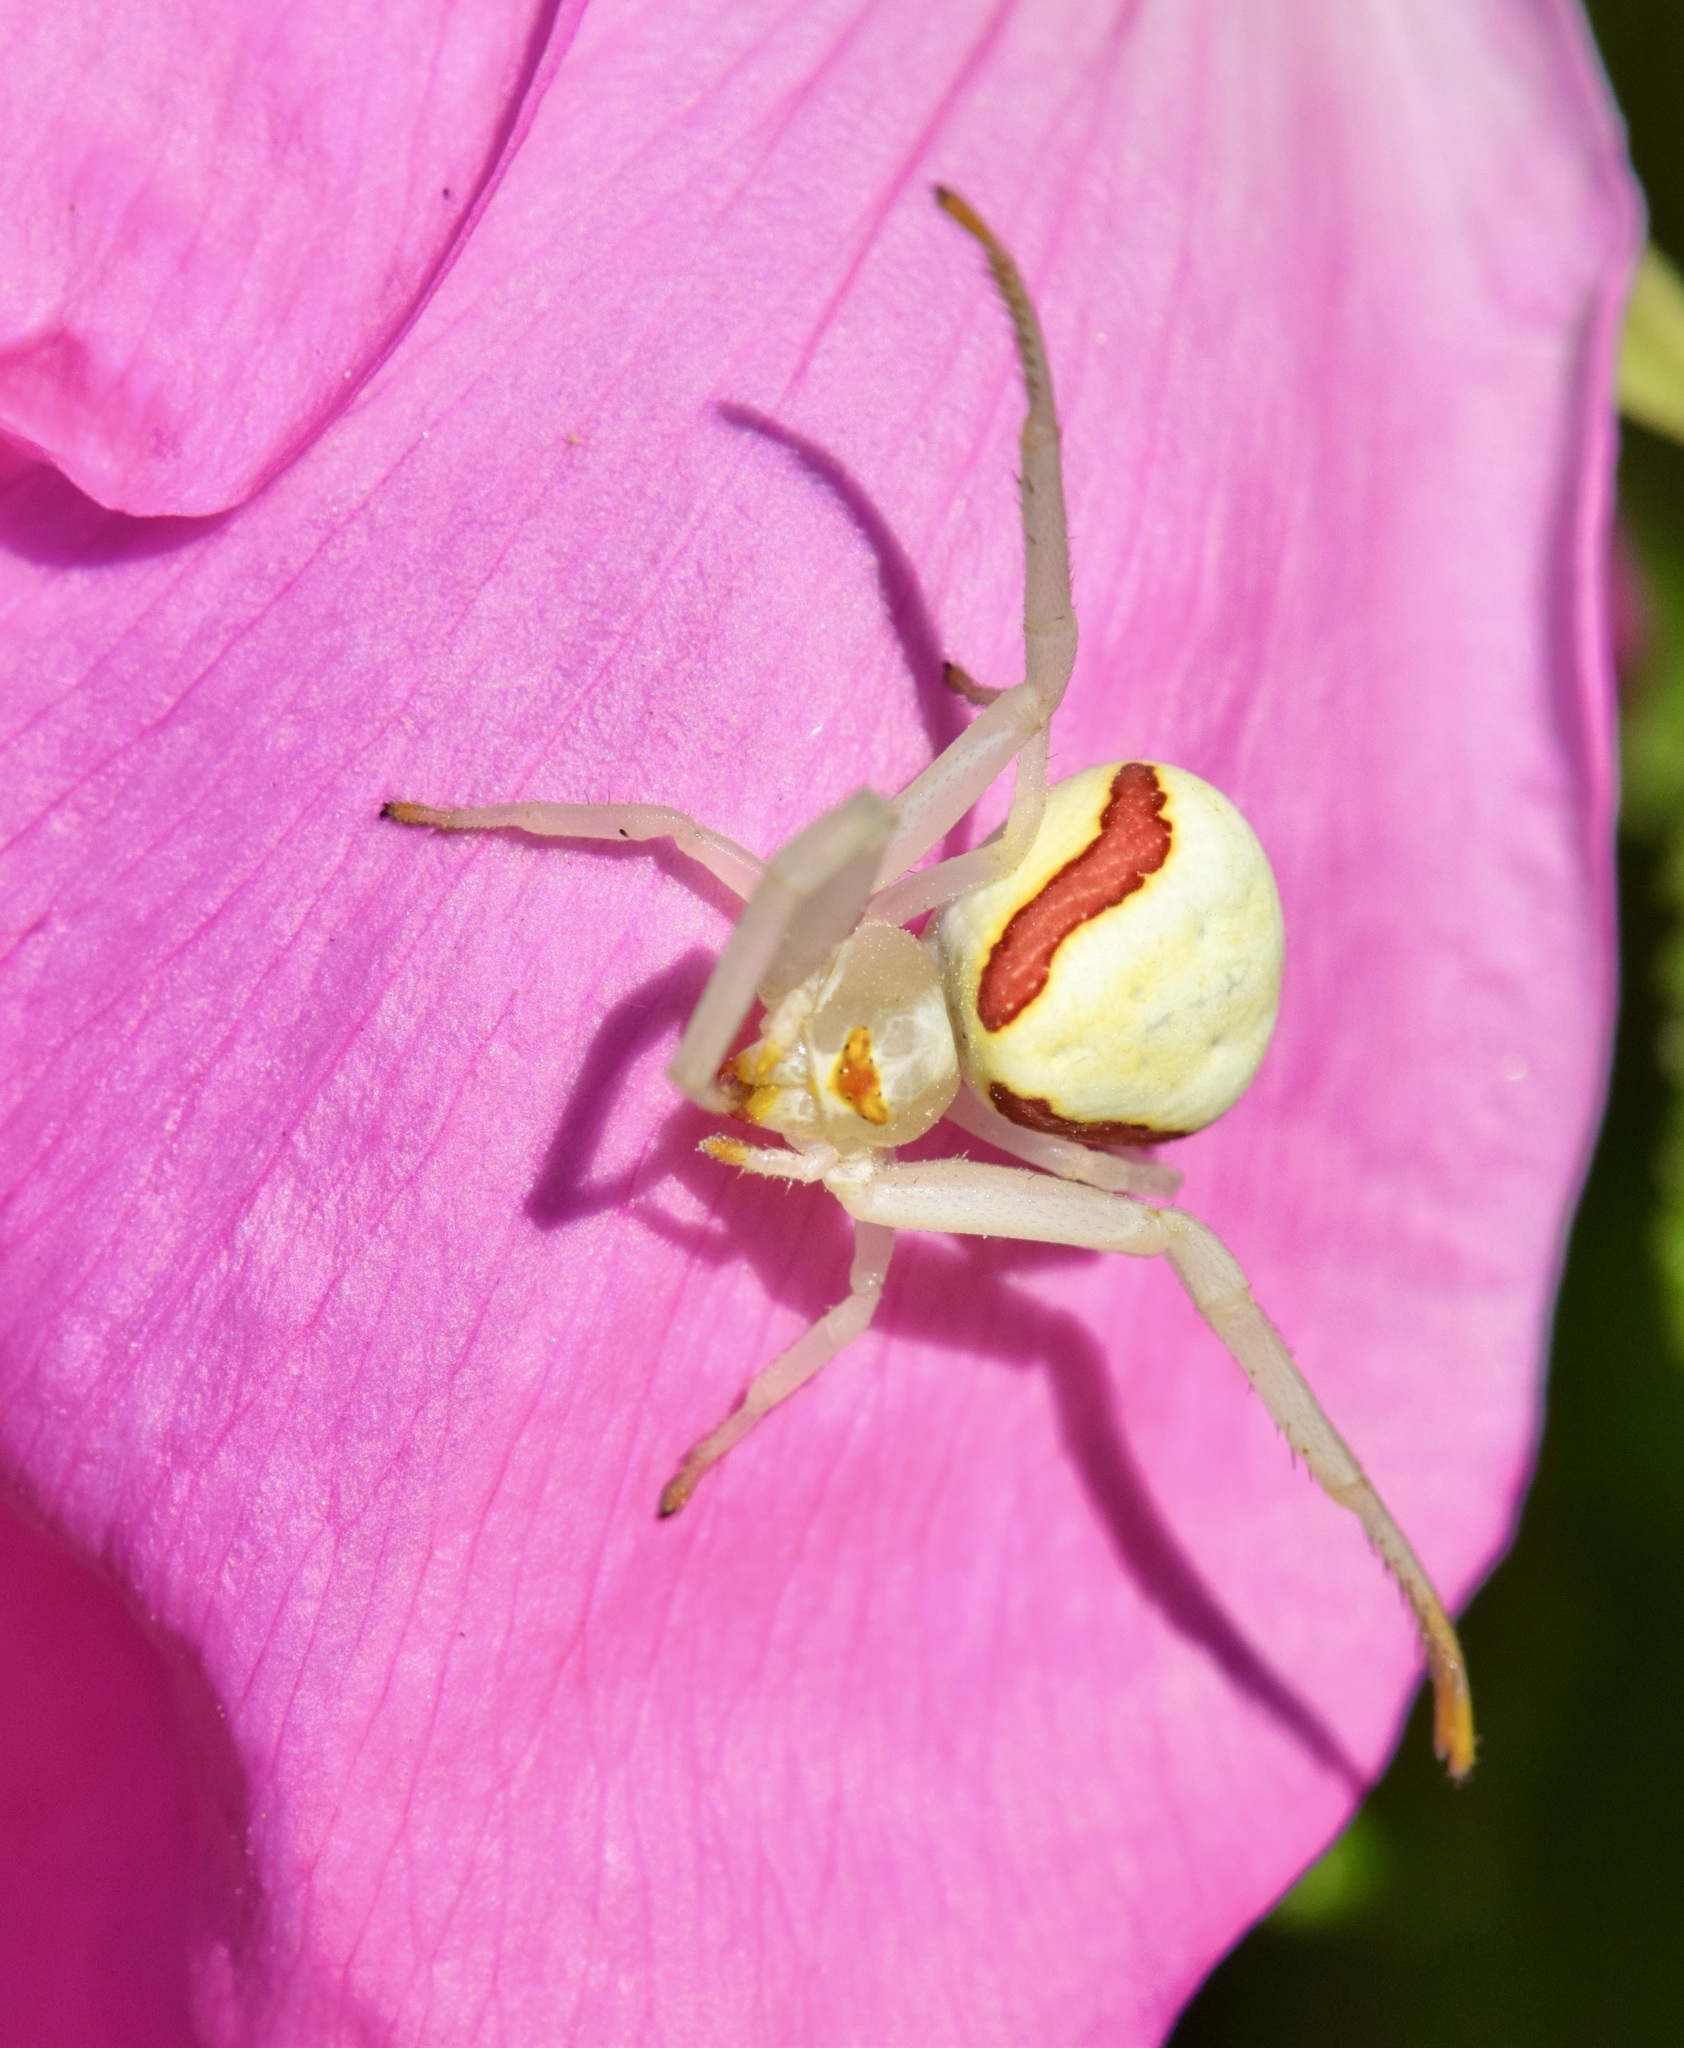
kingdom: Animalia
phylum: Arthropoda
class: Arachnida
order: Araneae
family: Thomisidae
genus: Misumena
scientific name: Misumena vatia
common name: Goldenrod crab spider
